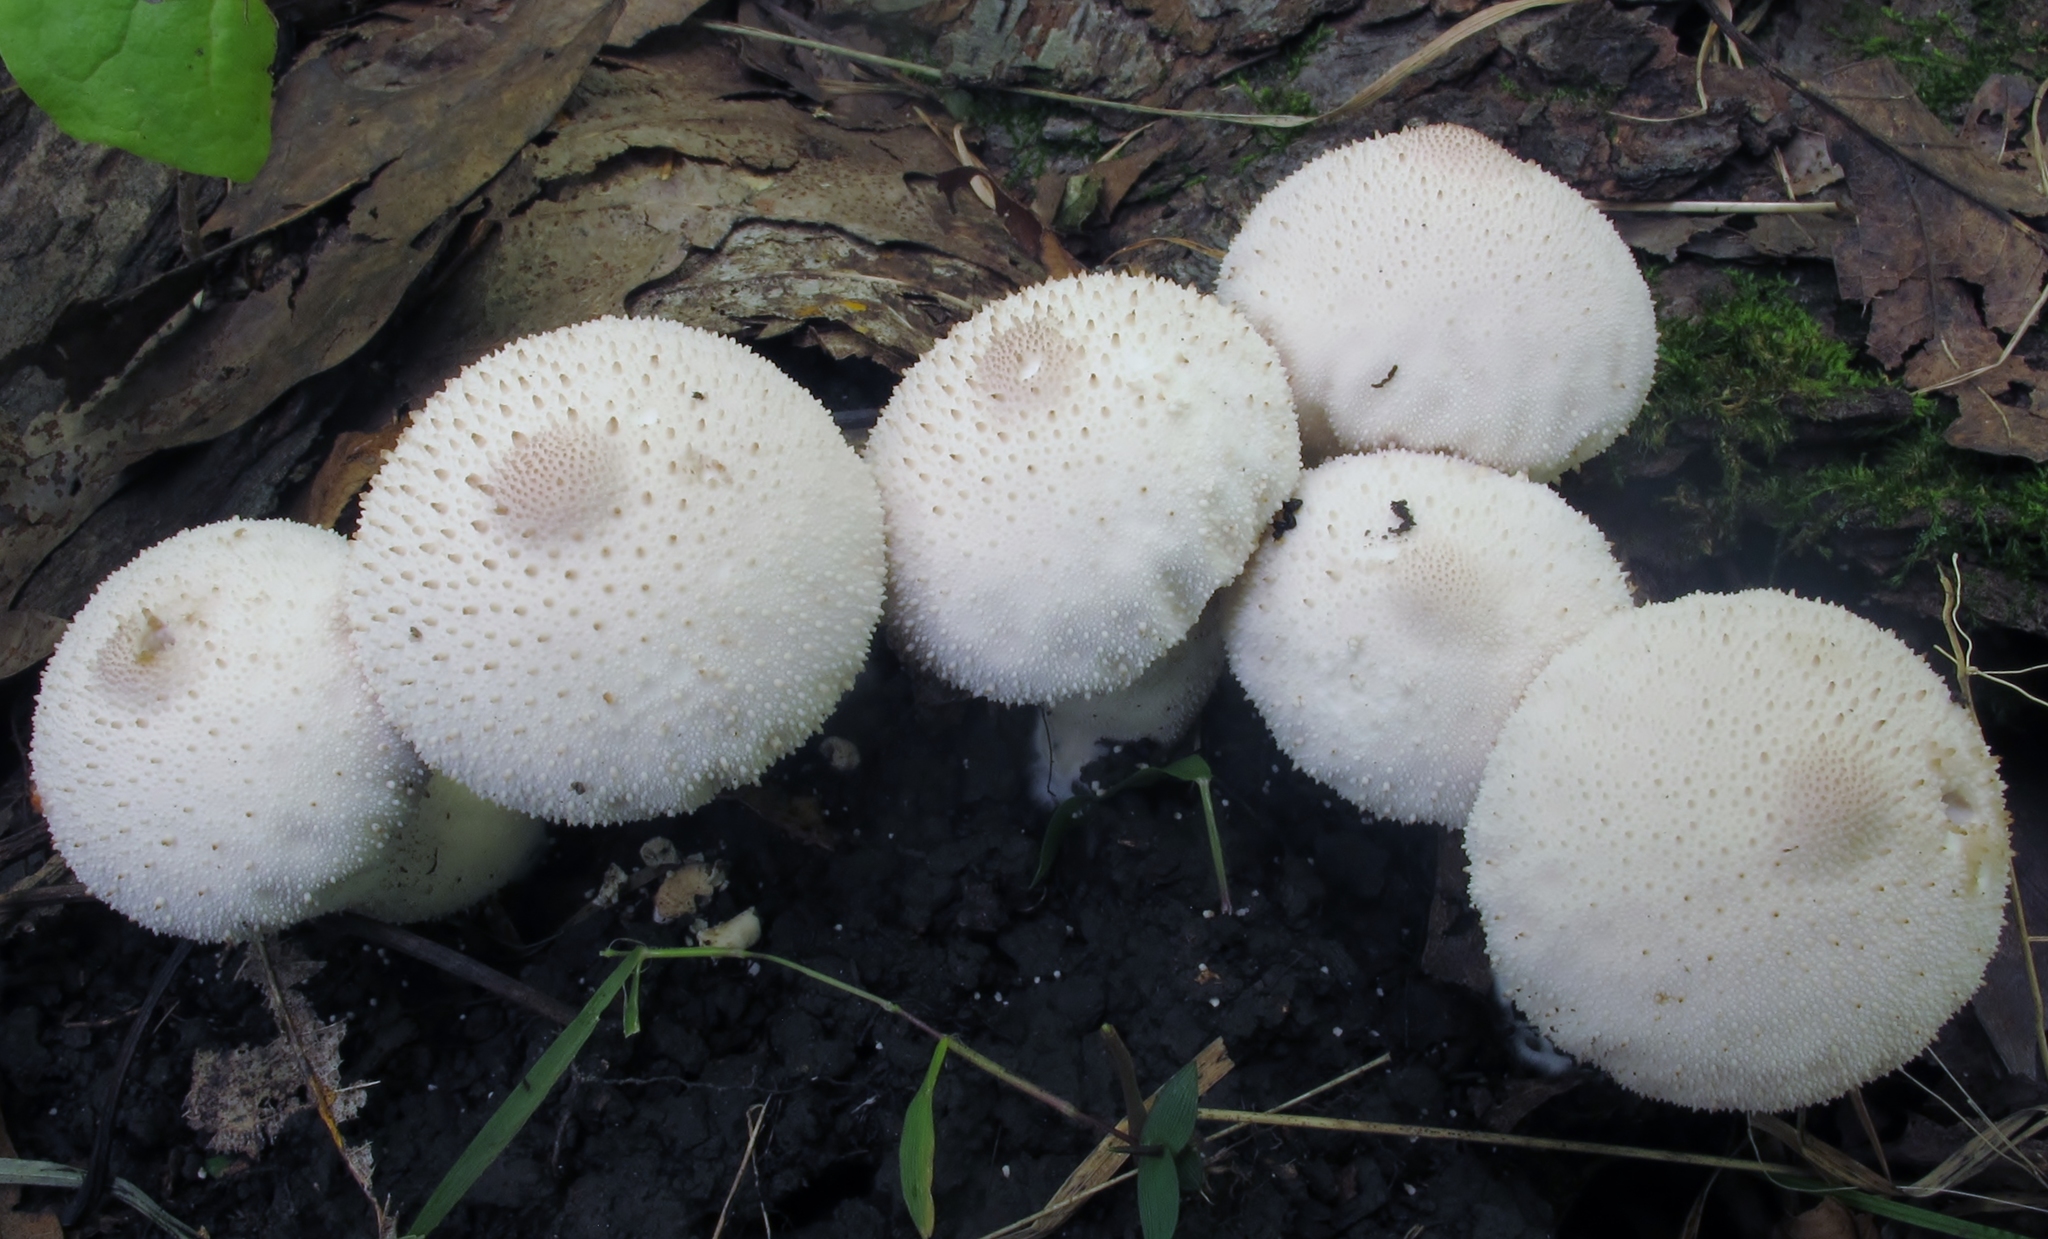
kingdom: Fungi
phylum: Basidiomycota
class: Agaricomycetes
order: Agaricales
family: Lycoperdaceae
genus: Lycoperdon
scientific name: Lycoperdon perlatum
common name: Common puffball
